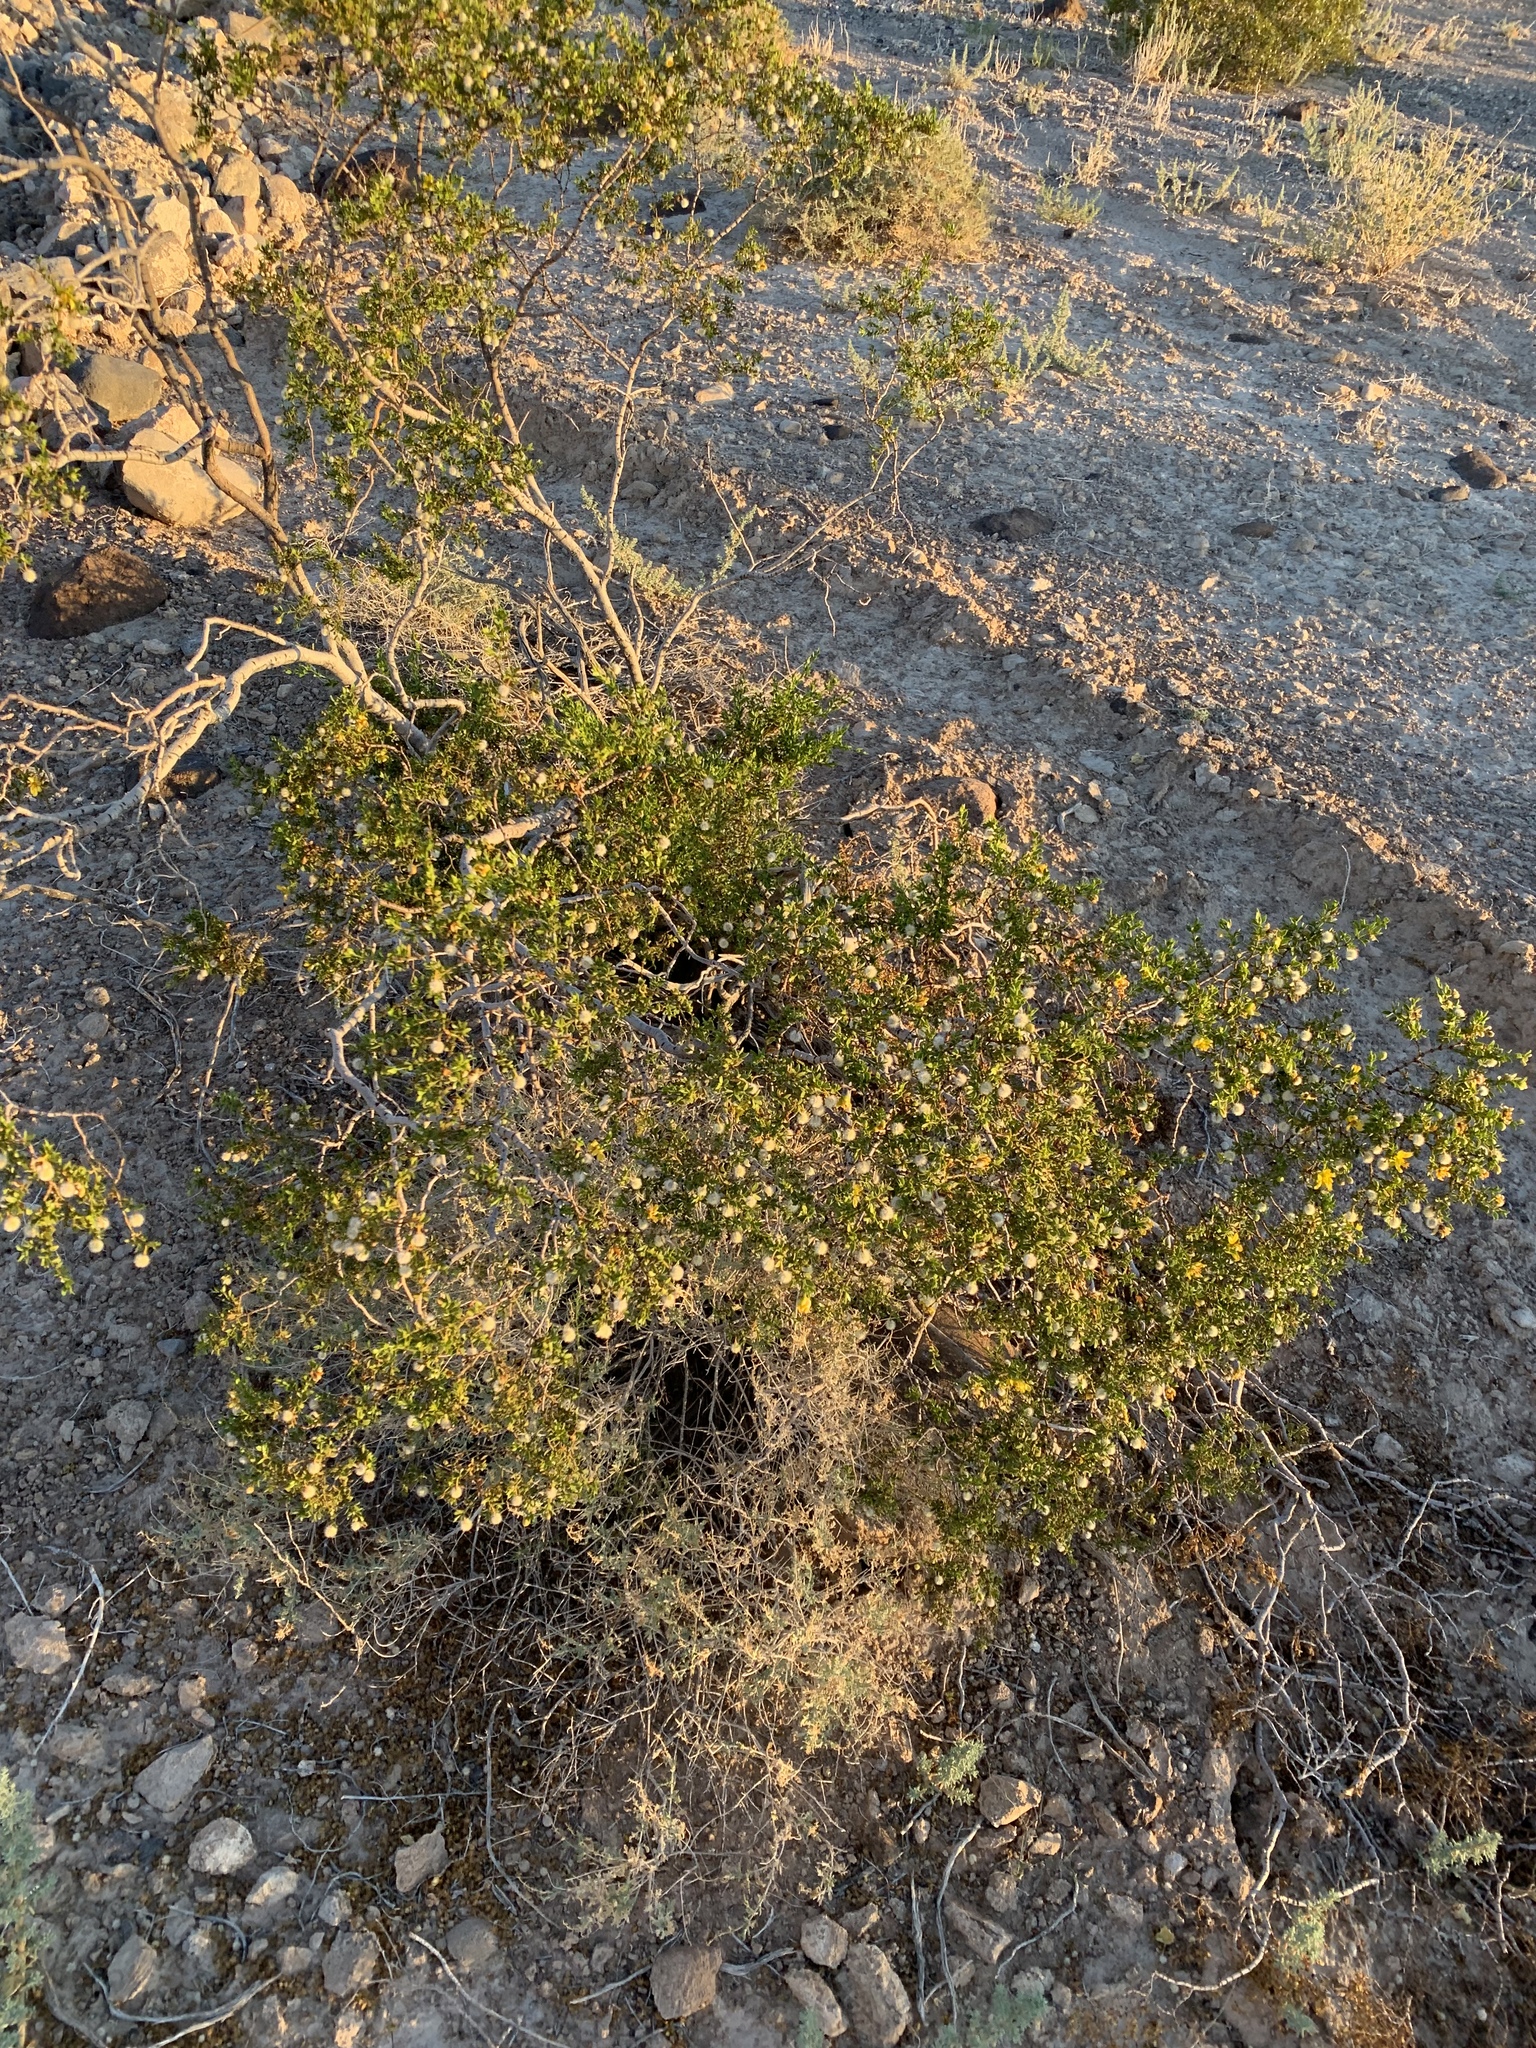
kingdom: Plantae
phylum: Tracheophyta
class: Magnoliopsida
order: Zygophyllales
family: Zygophyllaceae
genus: Larrea
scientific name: Larrea tridentata
